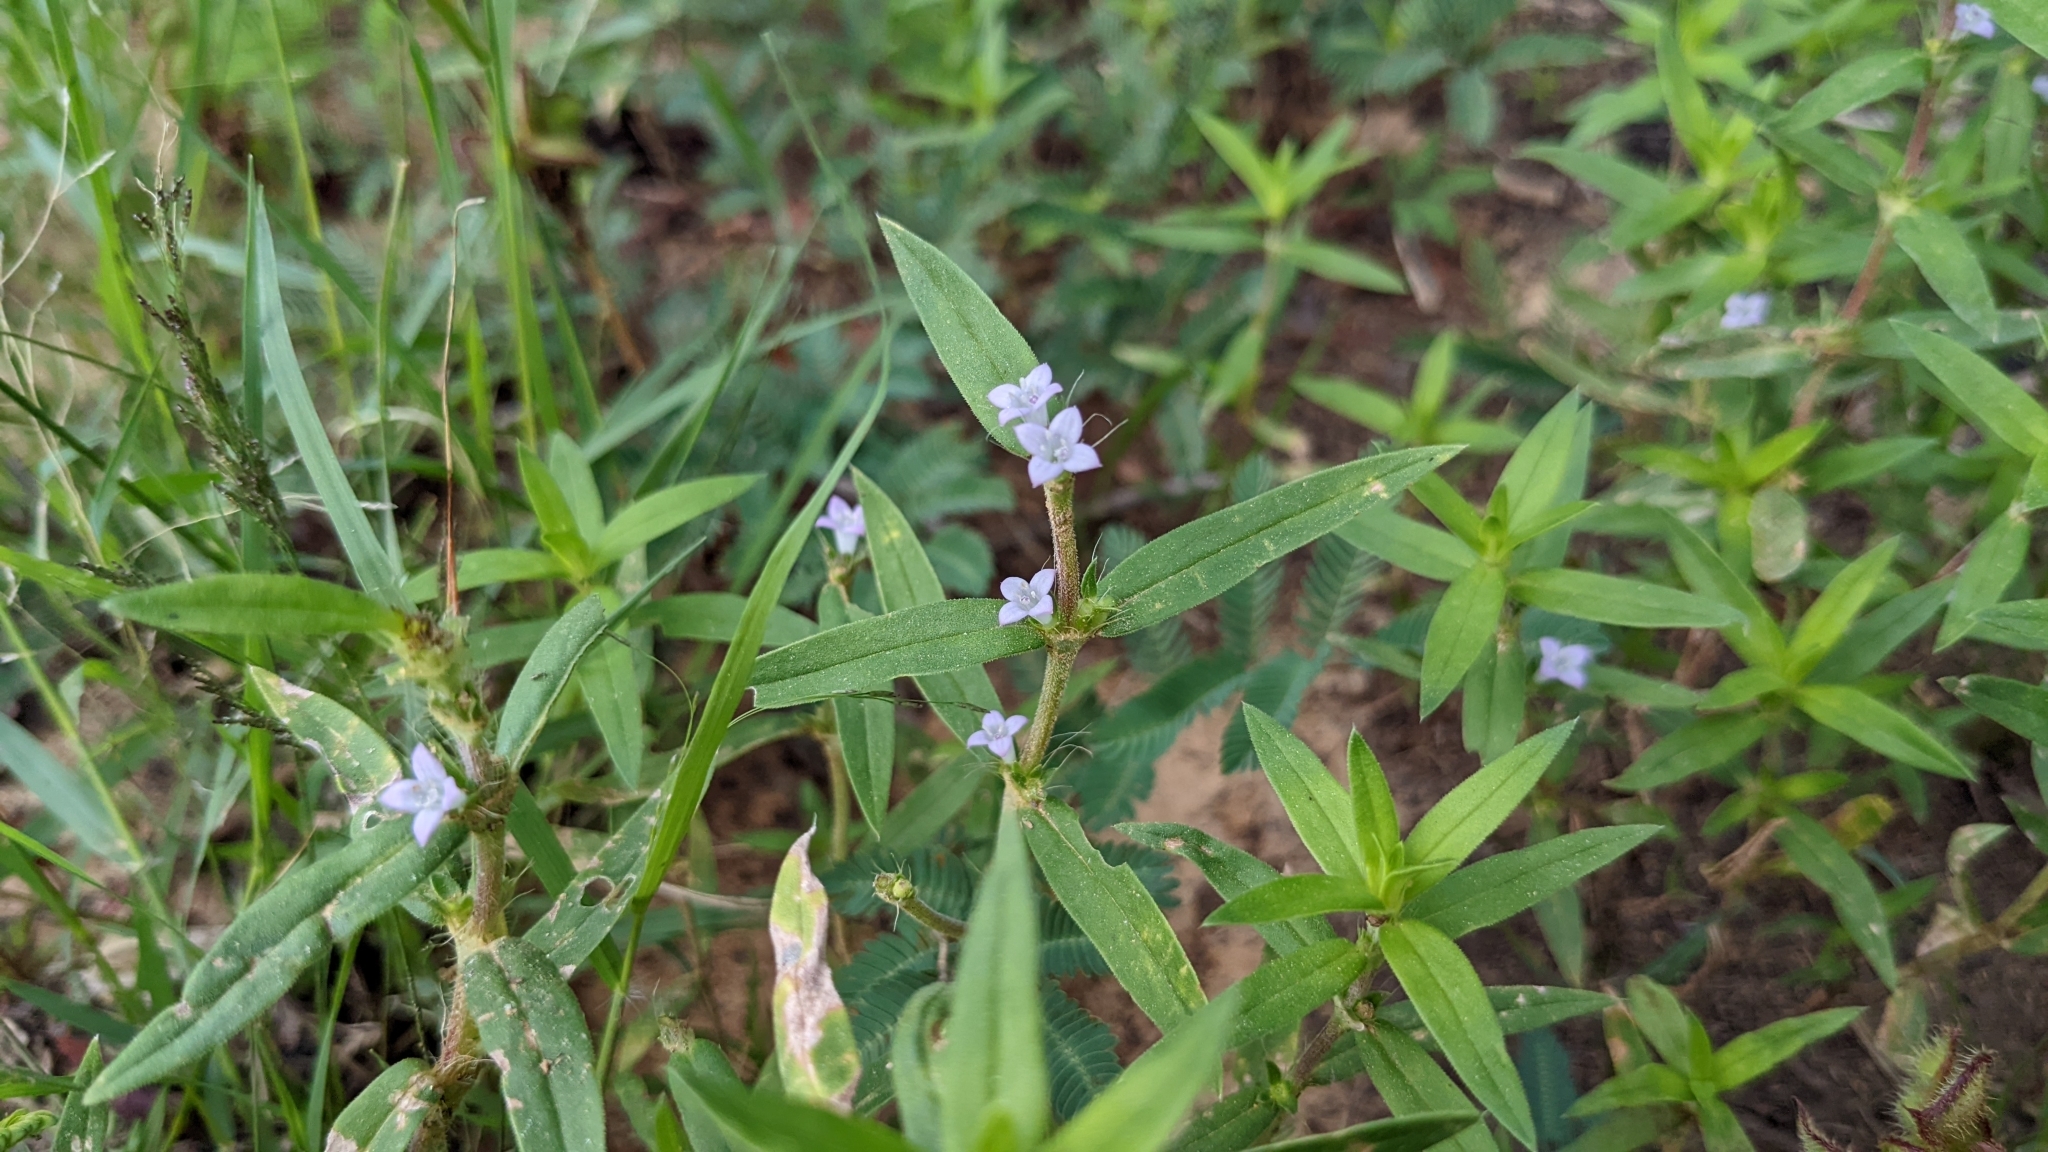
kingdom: Plantae
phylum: Tracheophyta
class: Magnoliopsida
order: Gentianales
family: Rubiaceae
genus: Hexasepalum
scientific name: Hexasepalum teres
